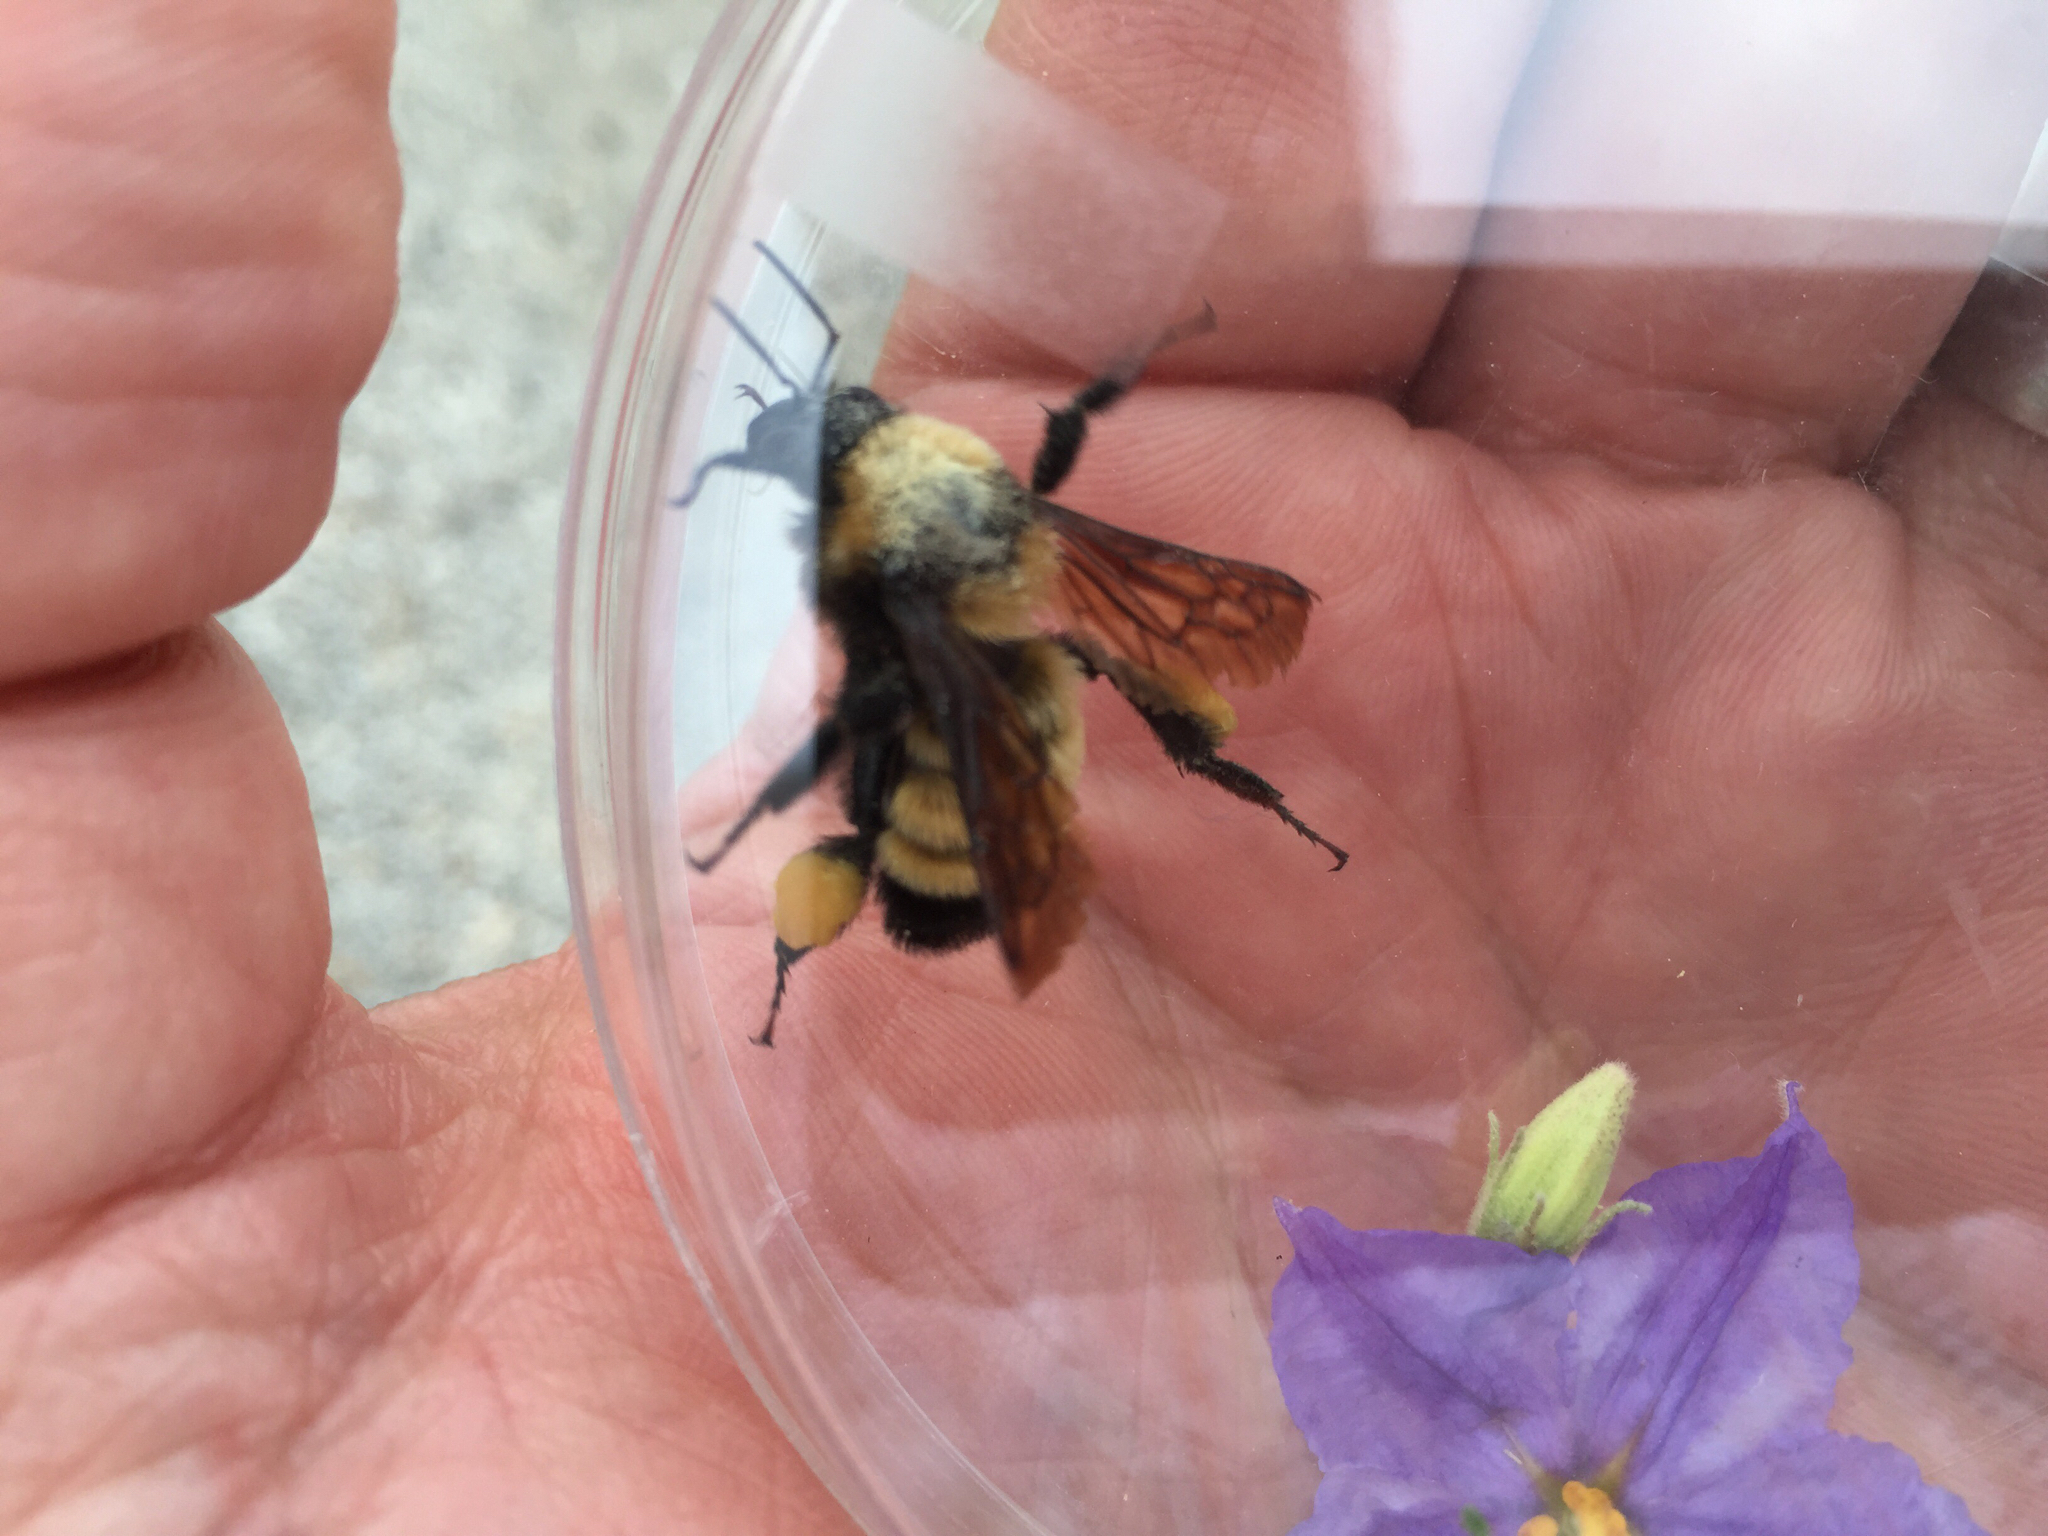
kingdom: Animalia
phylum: Arthropoda
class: Insecta
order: Hymenoptera
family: Apidae
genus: Bombus
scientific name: Bombus sonorus
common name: Sonoran bumble bee
